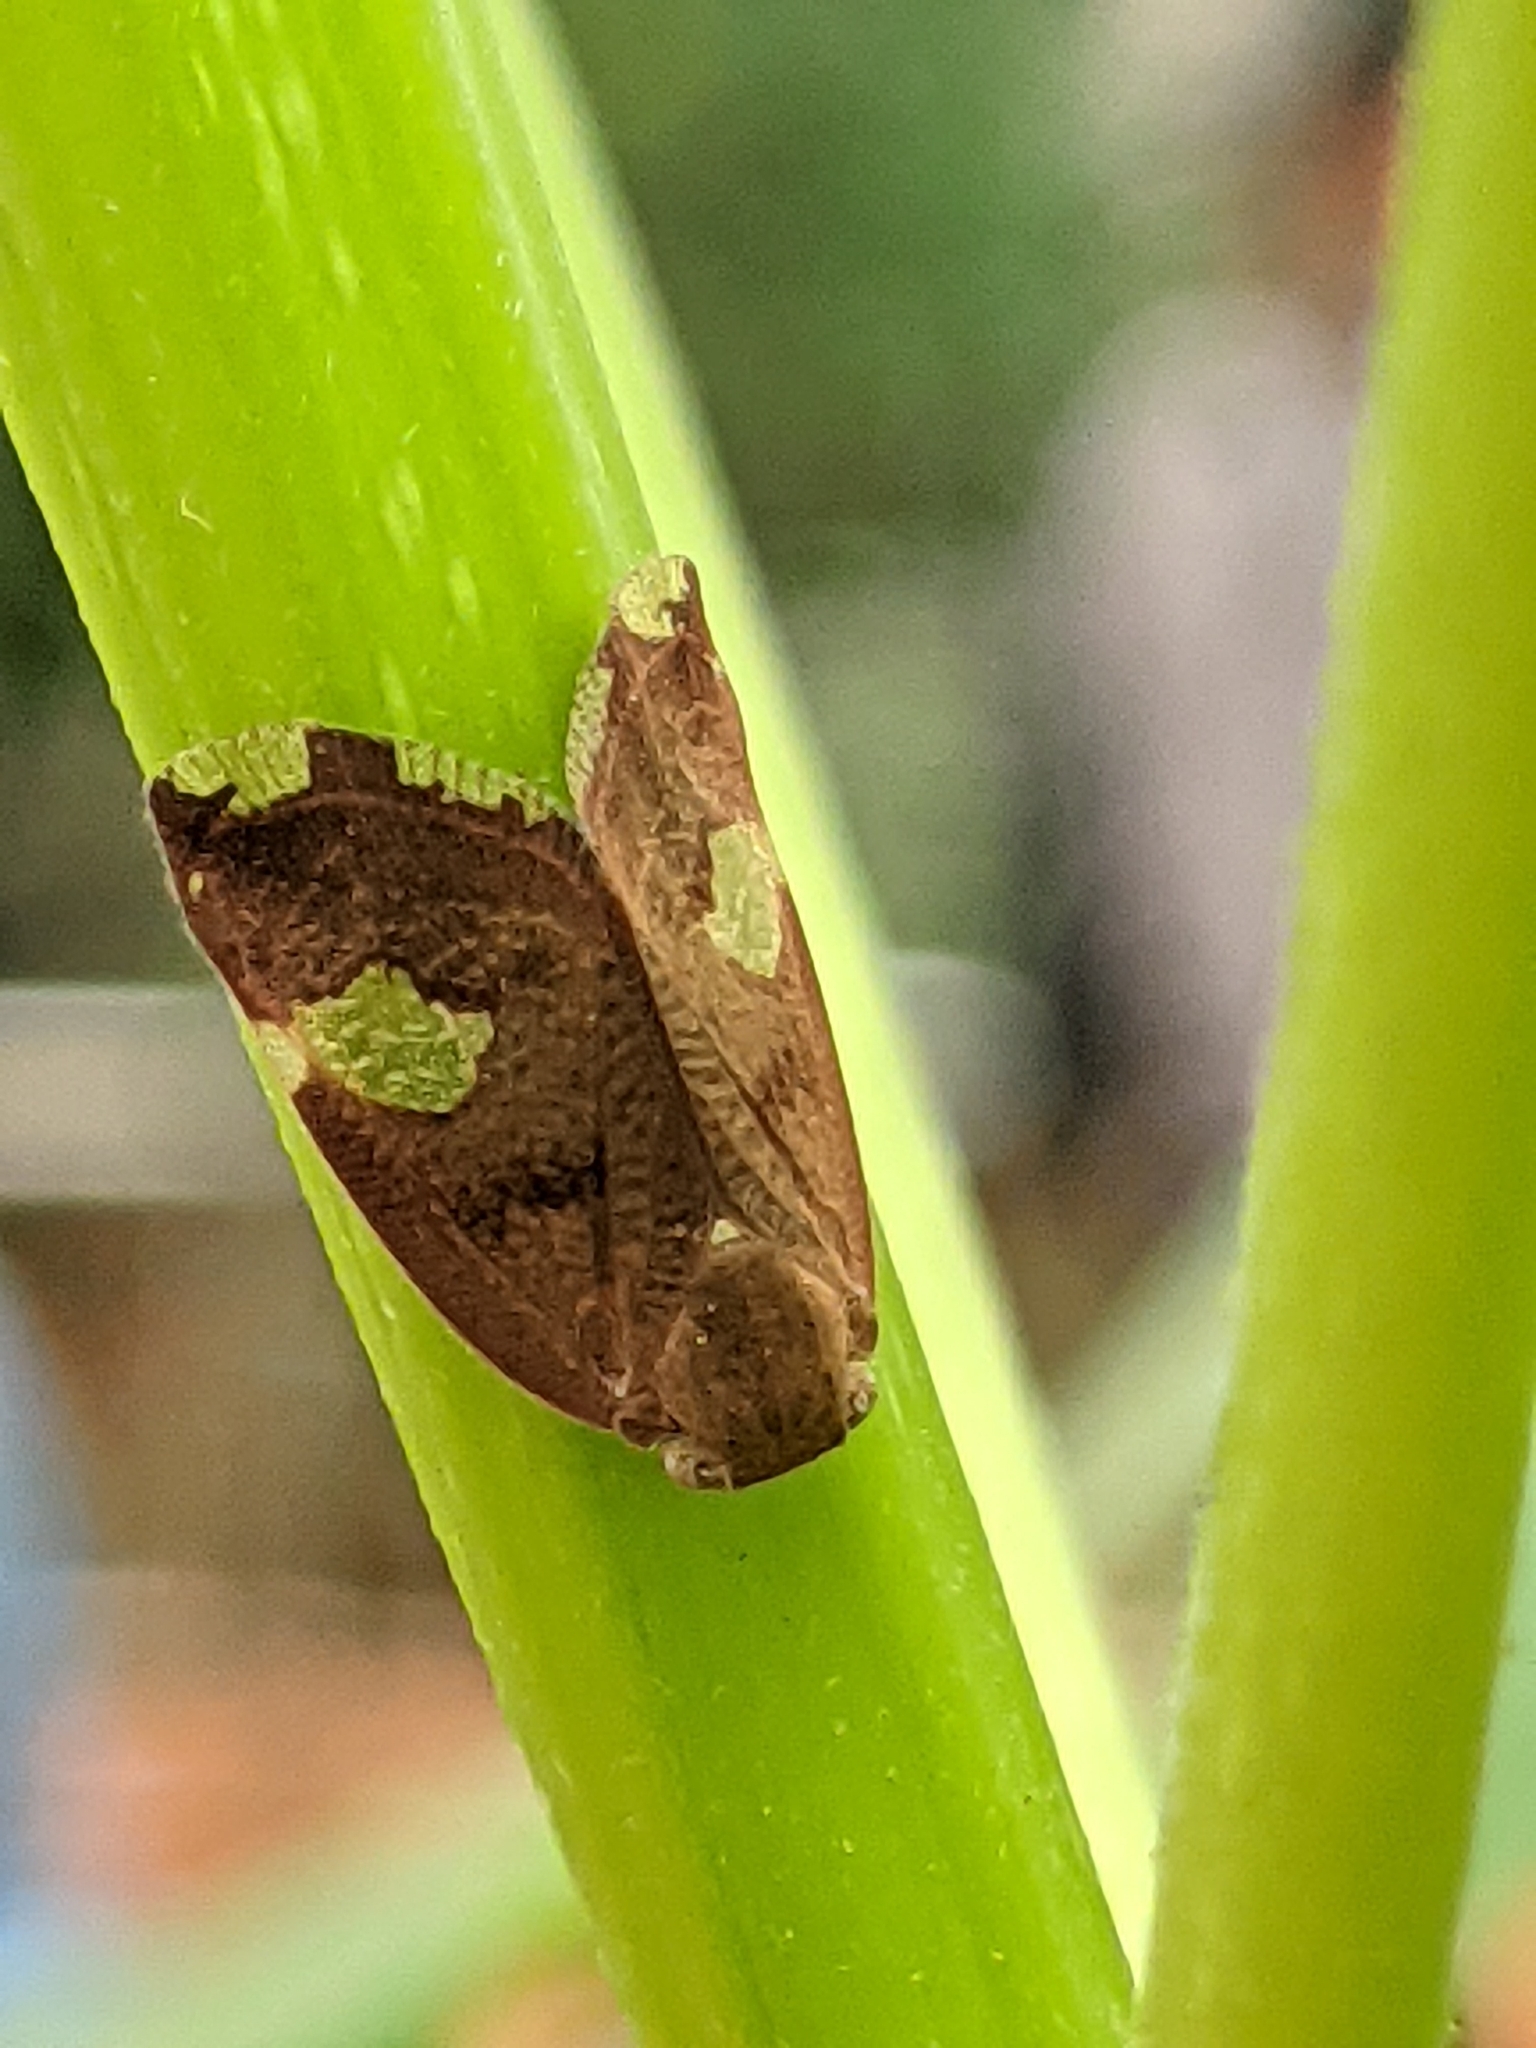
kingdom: Animalia
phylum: Arthropoda
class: Insecta
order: Hemiptera
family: Ricaniidae
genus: Ricania
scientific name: Ricania fenestrata
